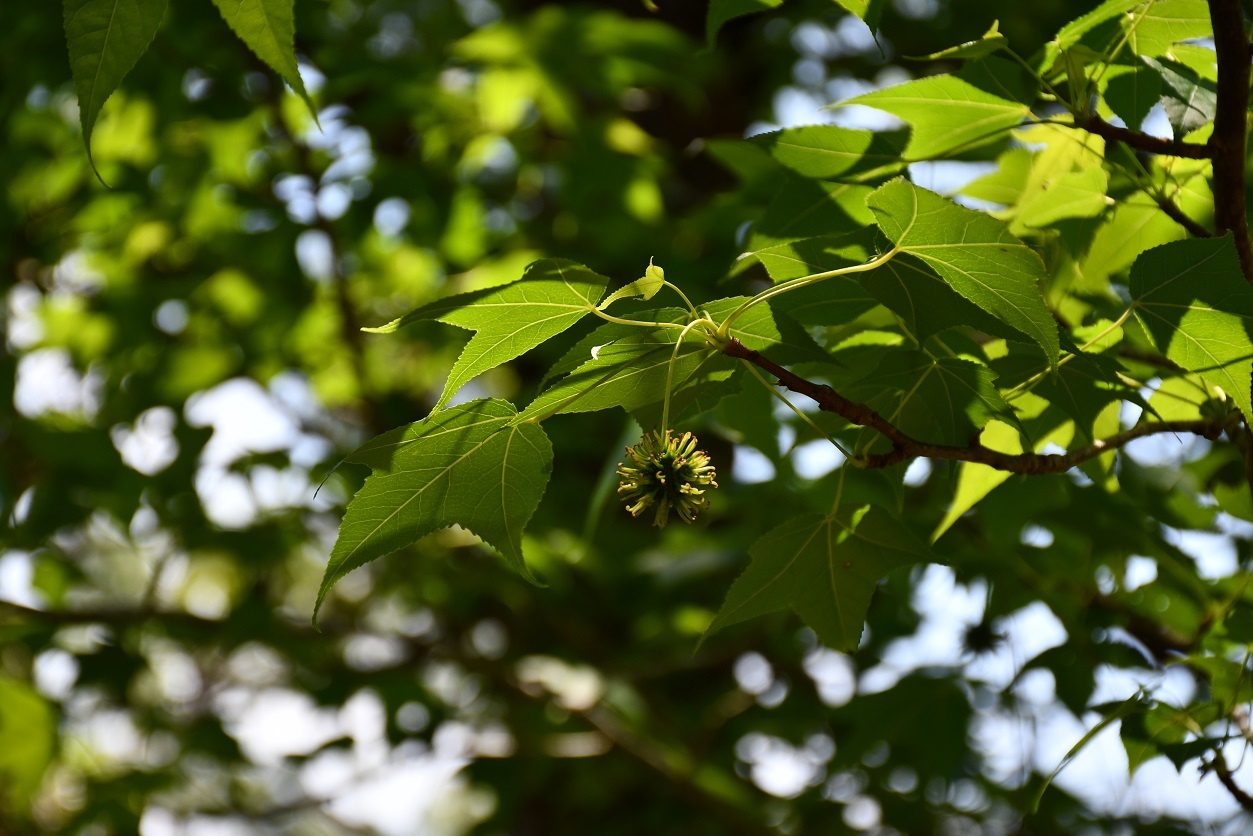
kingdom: Plantae
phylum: Tracheophyta
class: Magnoliopsida
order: Saxifragales
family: Altingiaceae
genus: Liquidambar
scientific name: Liquidambar styraciflua
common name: Sweet gum
